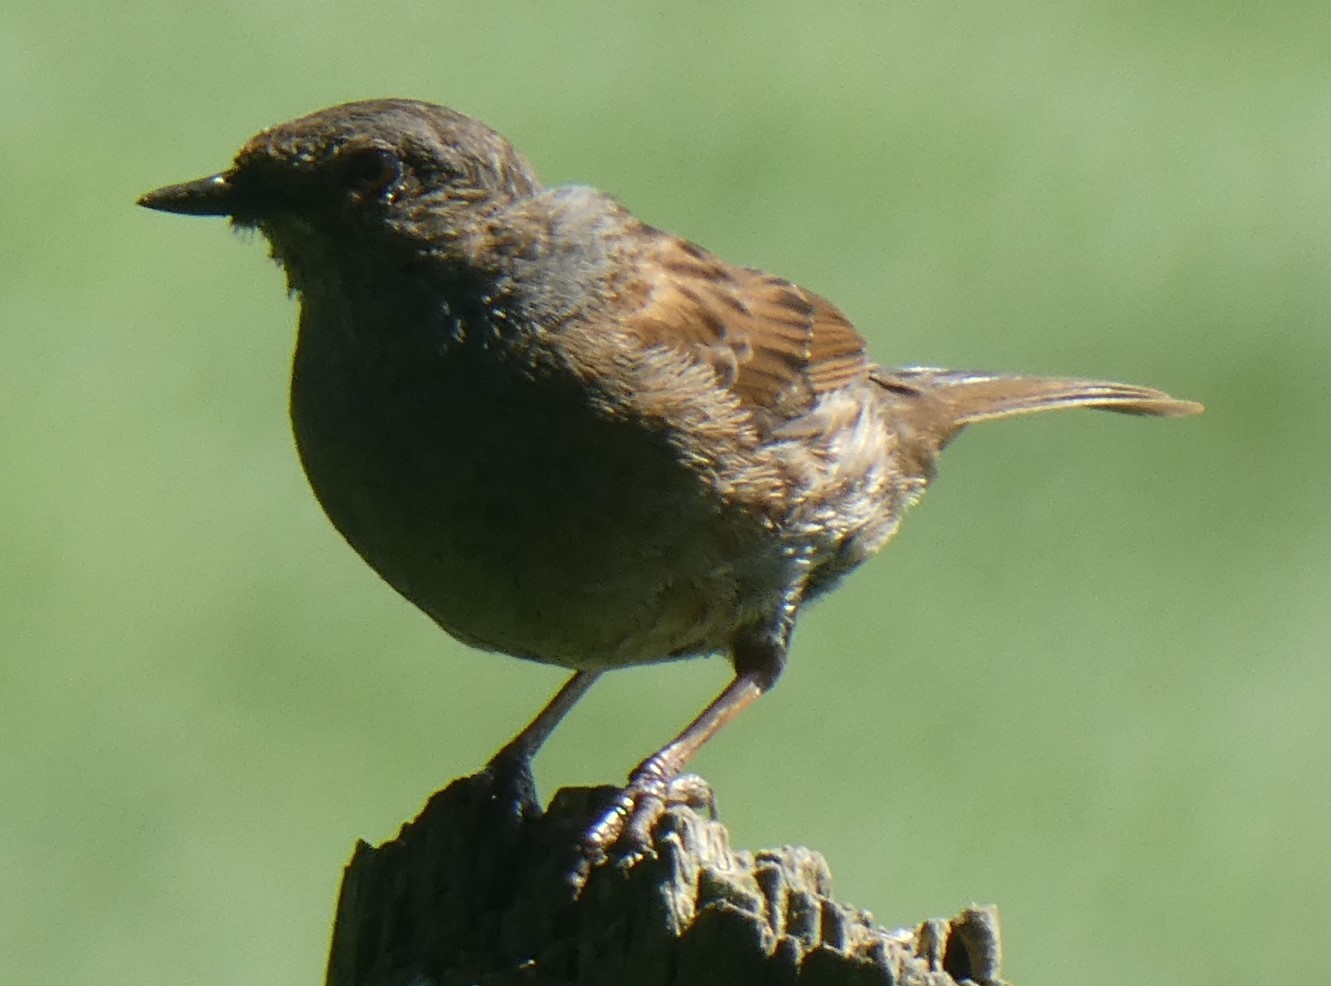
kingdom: Animalia
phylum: Chordata
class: Aves
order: Passeriformes
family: Prunellidae
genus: Prunella
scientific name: Prunella modularis
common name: Dunnock
